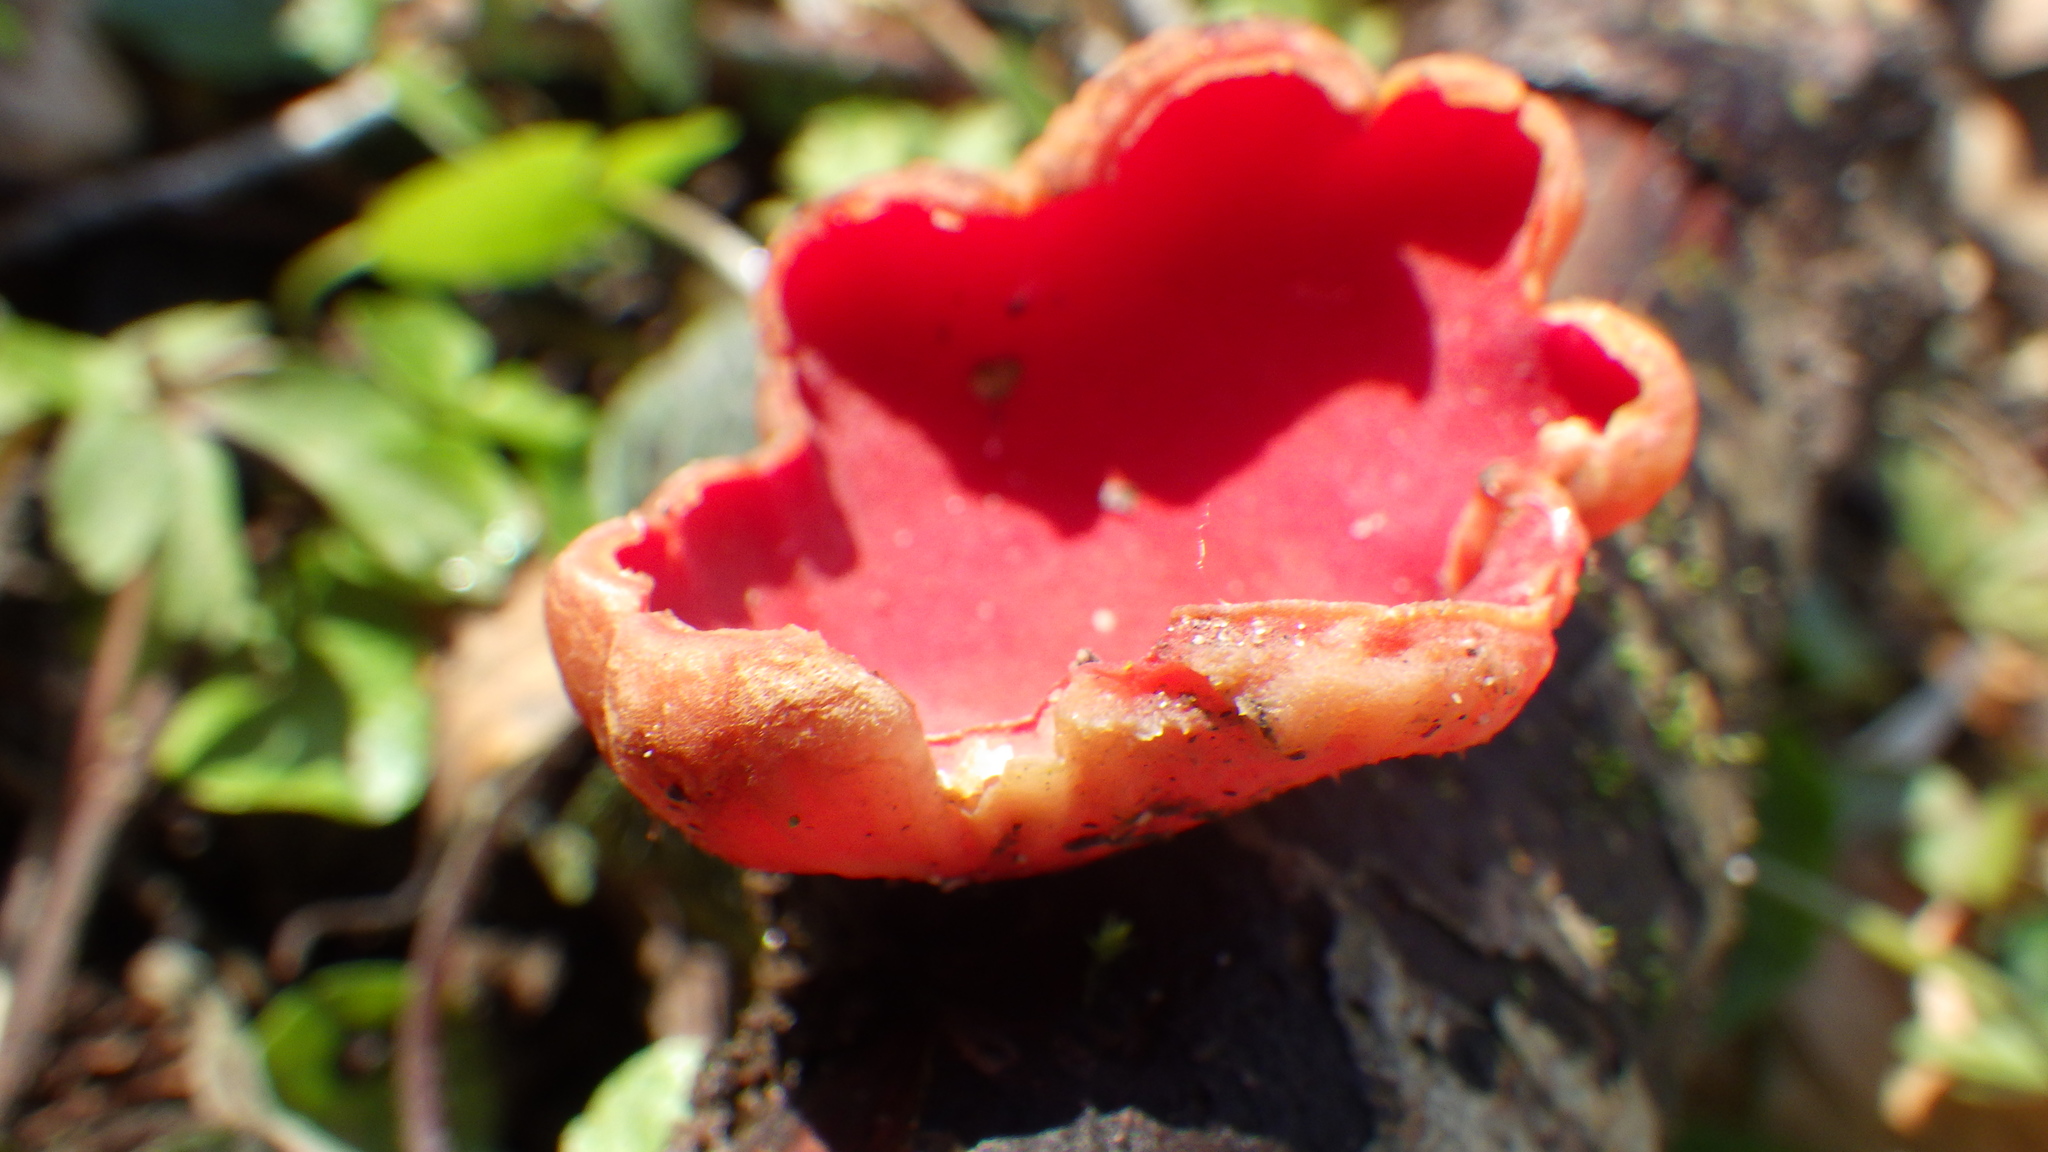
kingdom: Fungi
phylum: Ascomycota
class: Pezizomycetes
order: Pezizales
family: Sarcoscyphaceae
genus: Sarcoscypha
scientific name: Sarcoscypha
